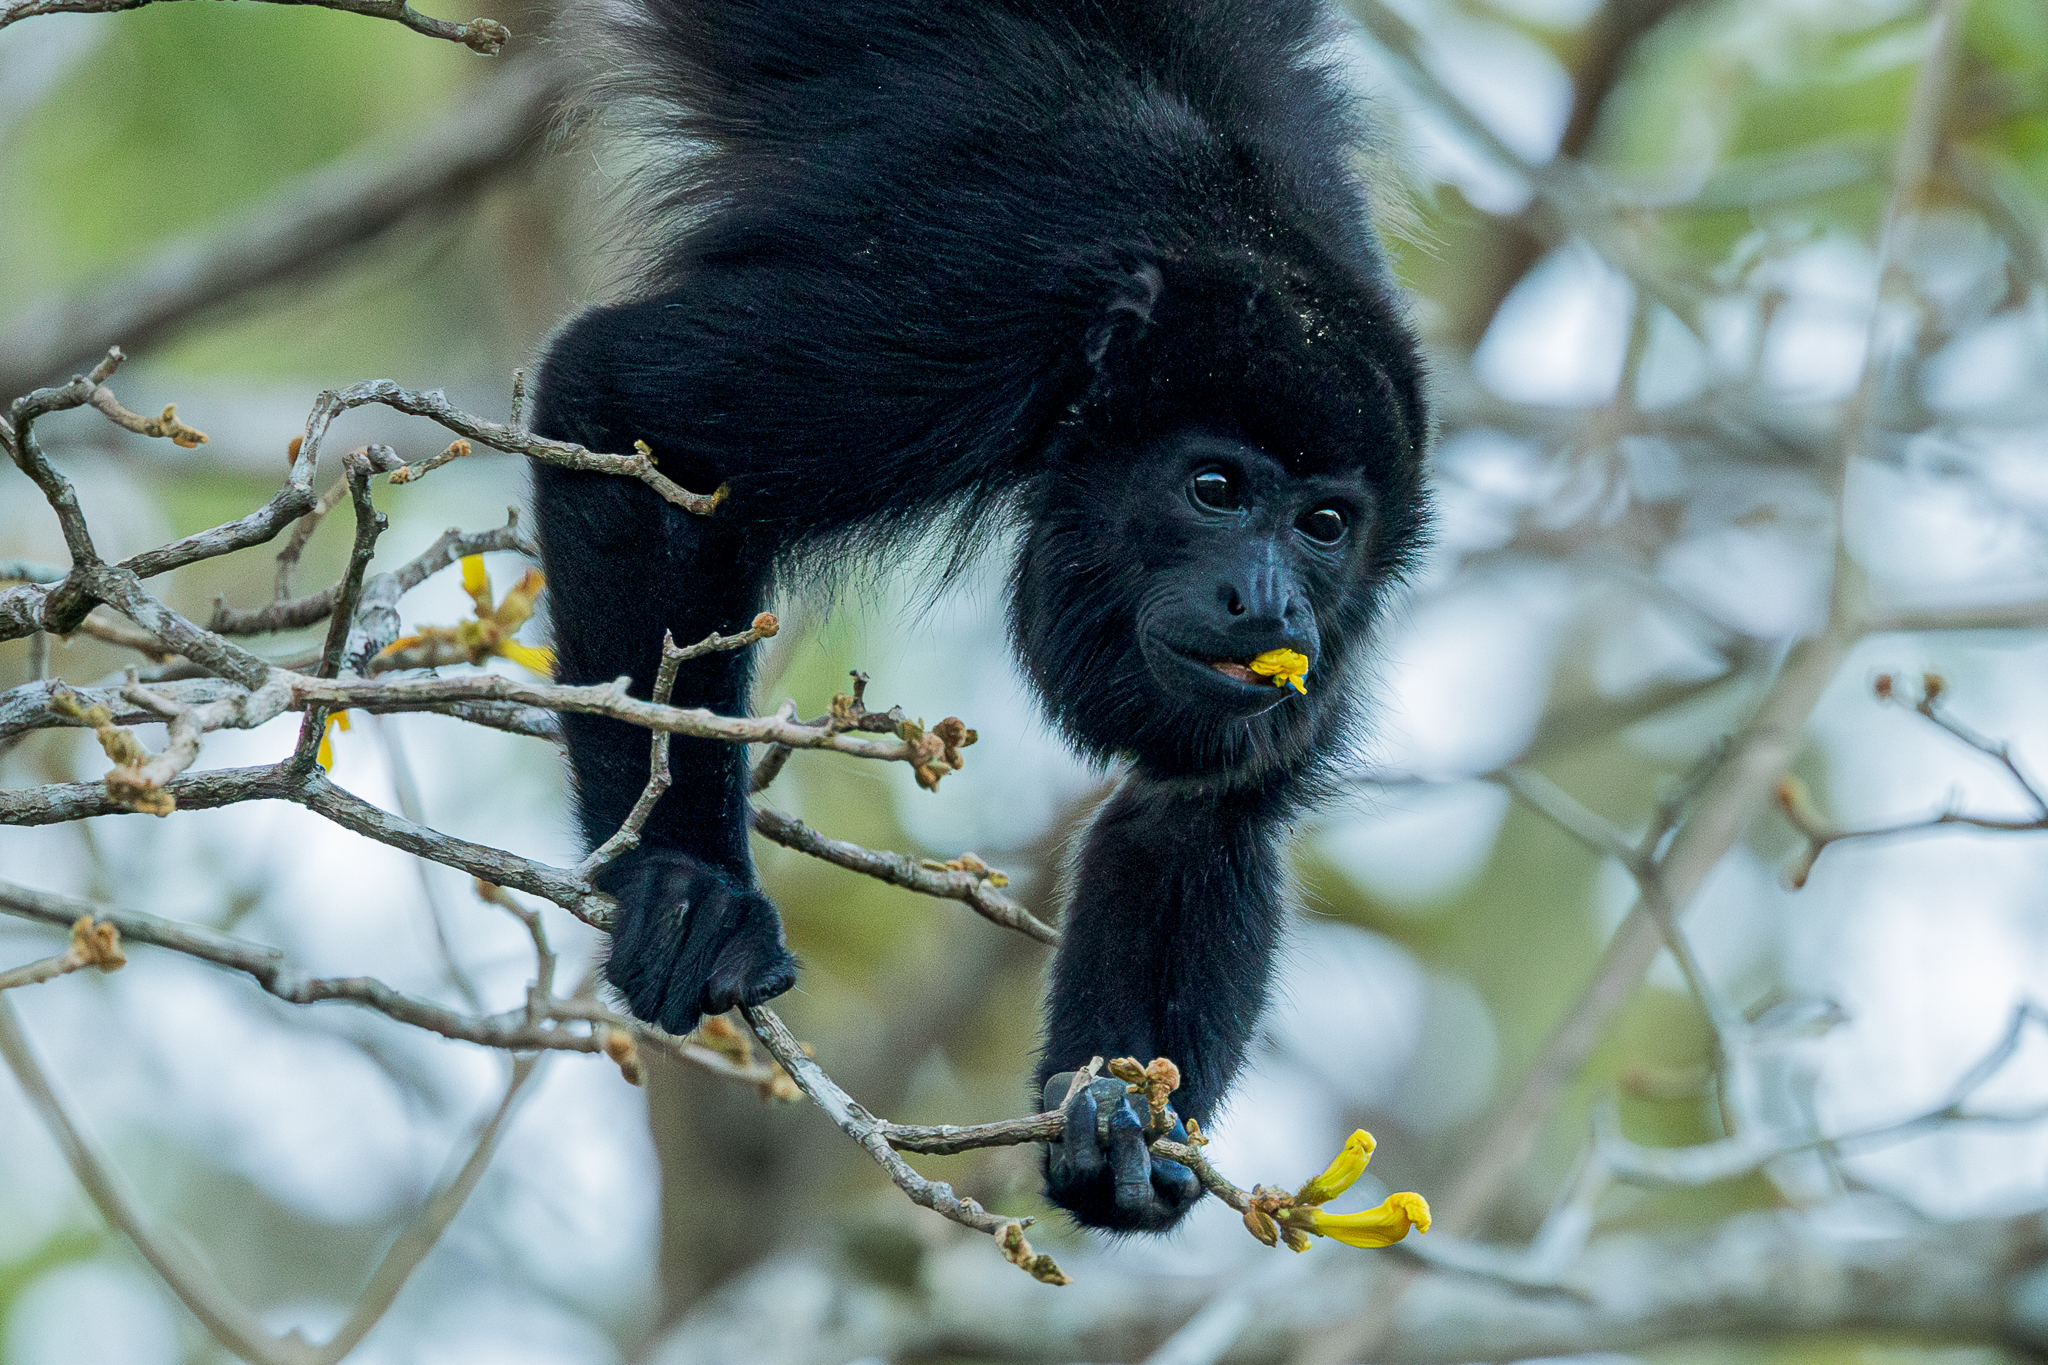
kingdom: Animalia
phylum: Chordata
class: Mammalia
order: Primates
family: Atelidae
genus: Alouatta
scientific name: Alouatta palliata
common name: Mantled howler
